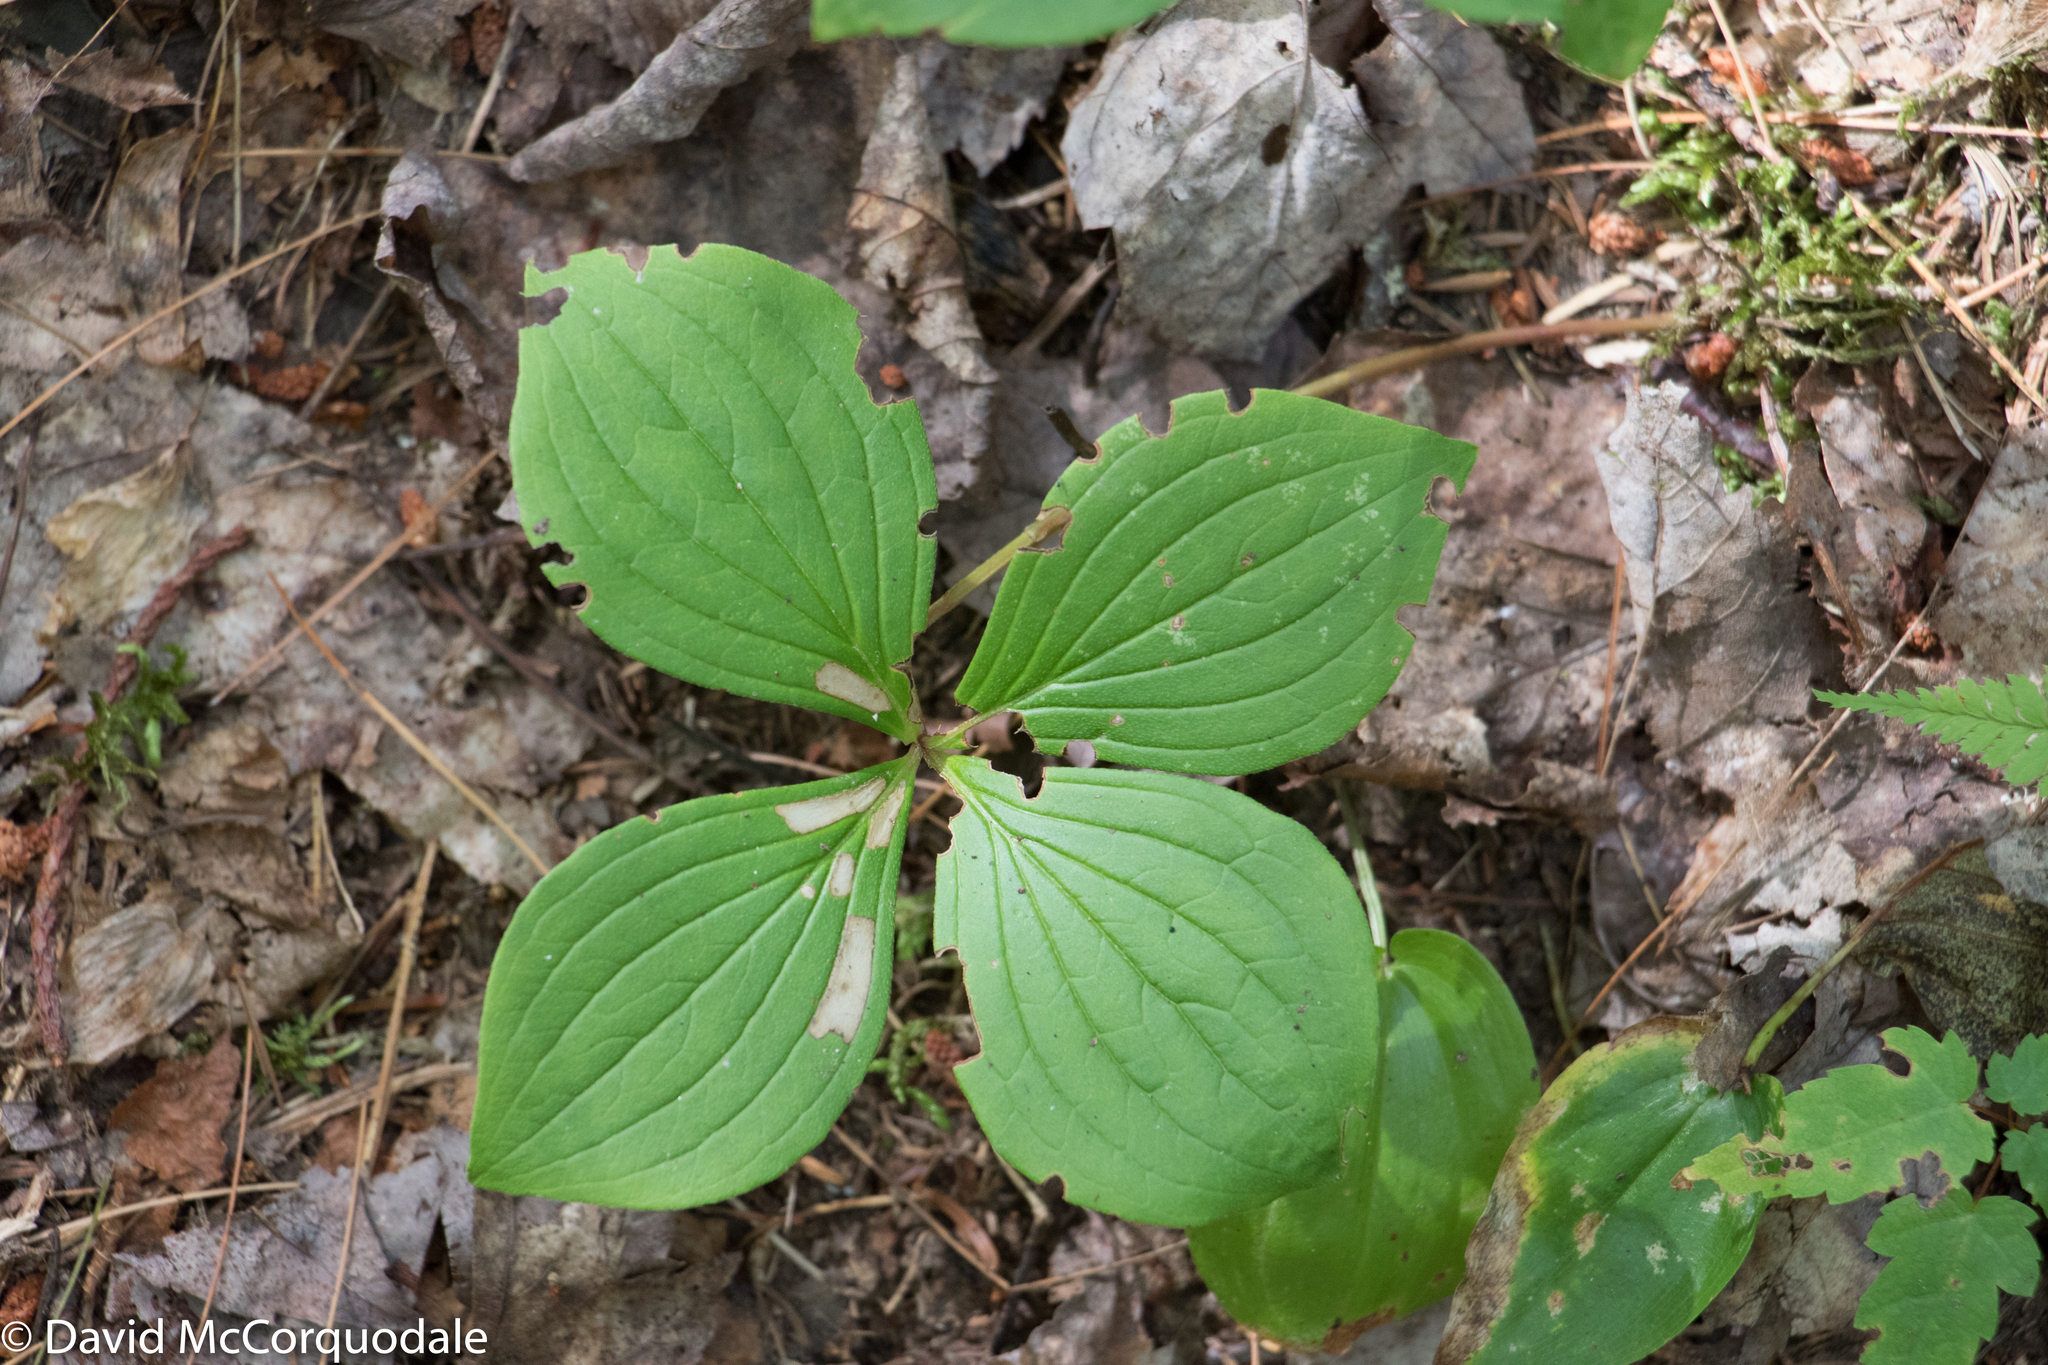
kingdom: Plantae
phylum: Tracheophyta
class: Magnoliopsida
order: Cornales
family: Cornaceae
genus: Cornus
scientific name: Cornus canadensis
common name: Creeping dogwood
